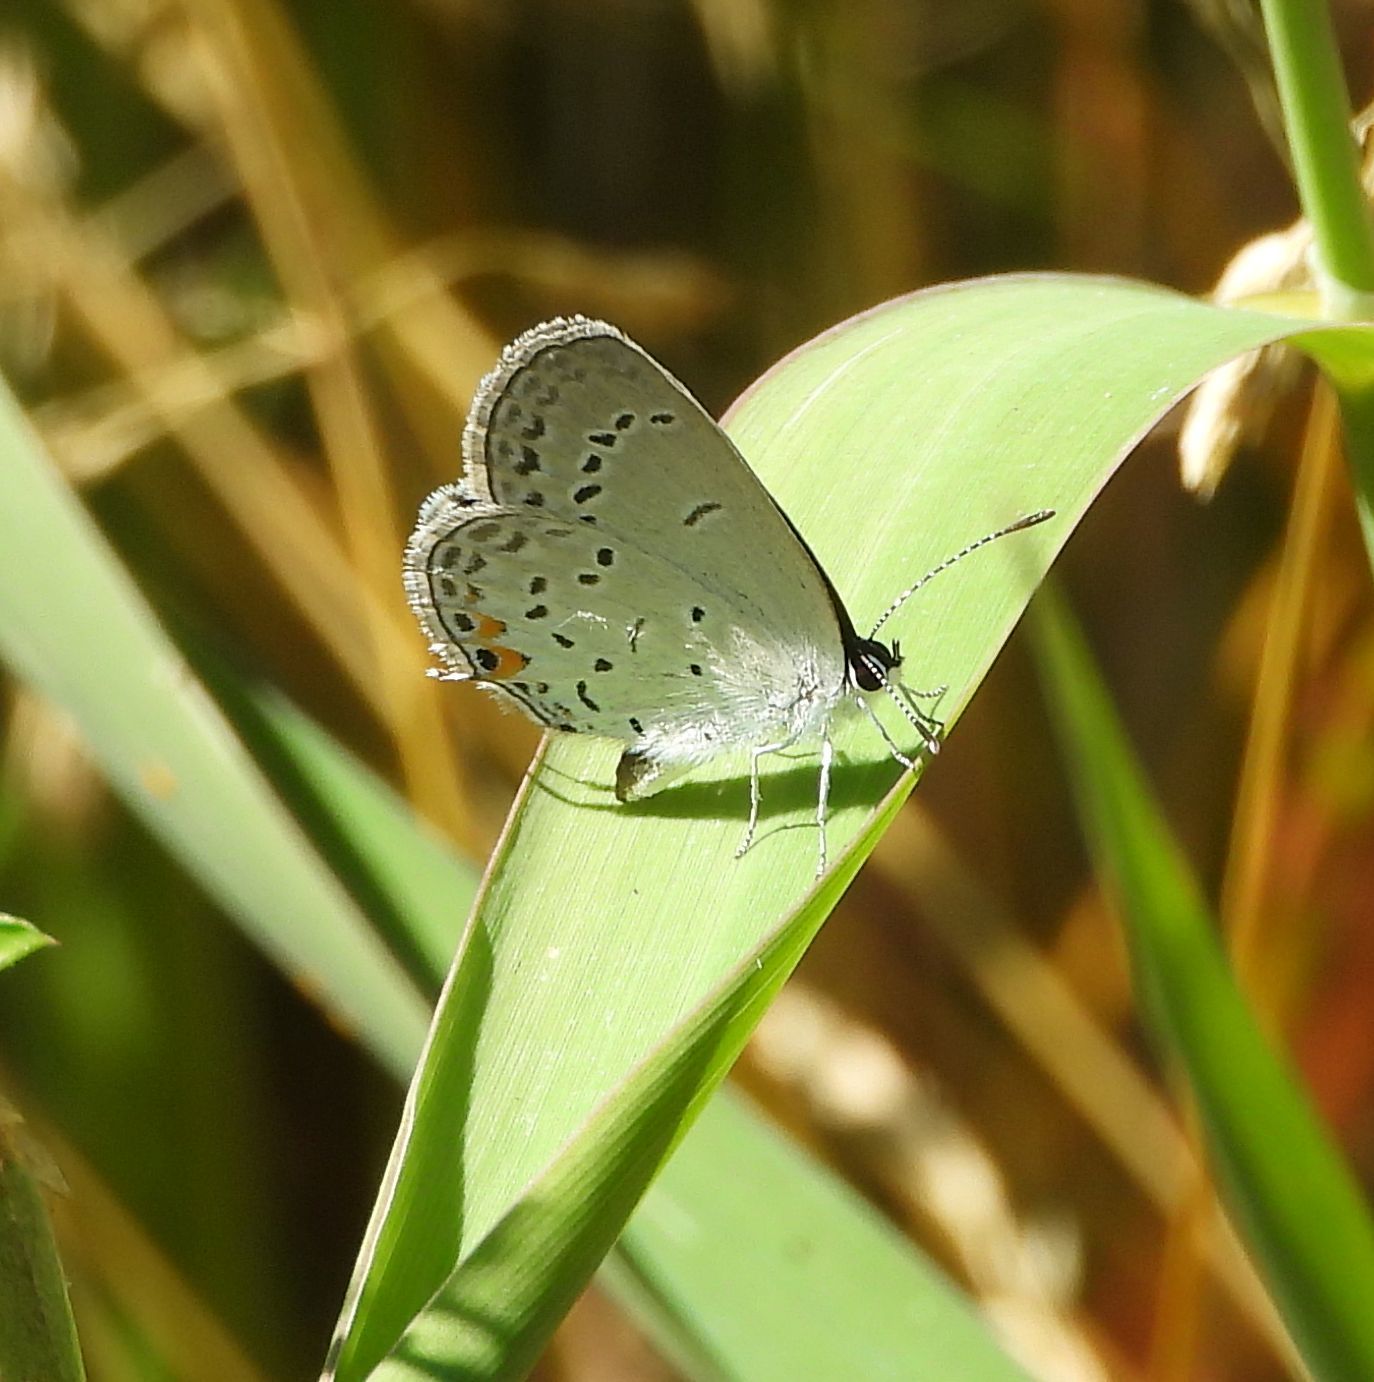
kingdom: Animalia
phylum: Arthropoda
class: Insecta
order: Lepidoptera
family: Lycaenidae
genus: Elkalyce
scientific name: Elkalyce comyntas
